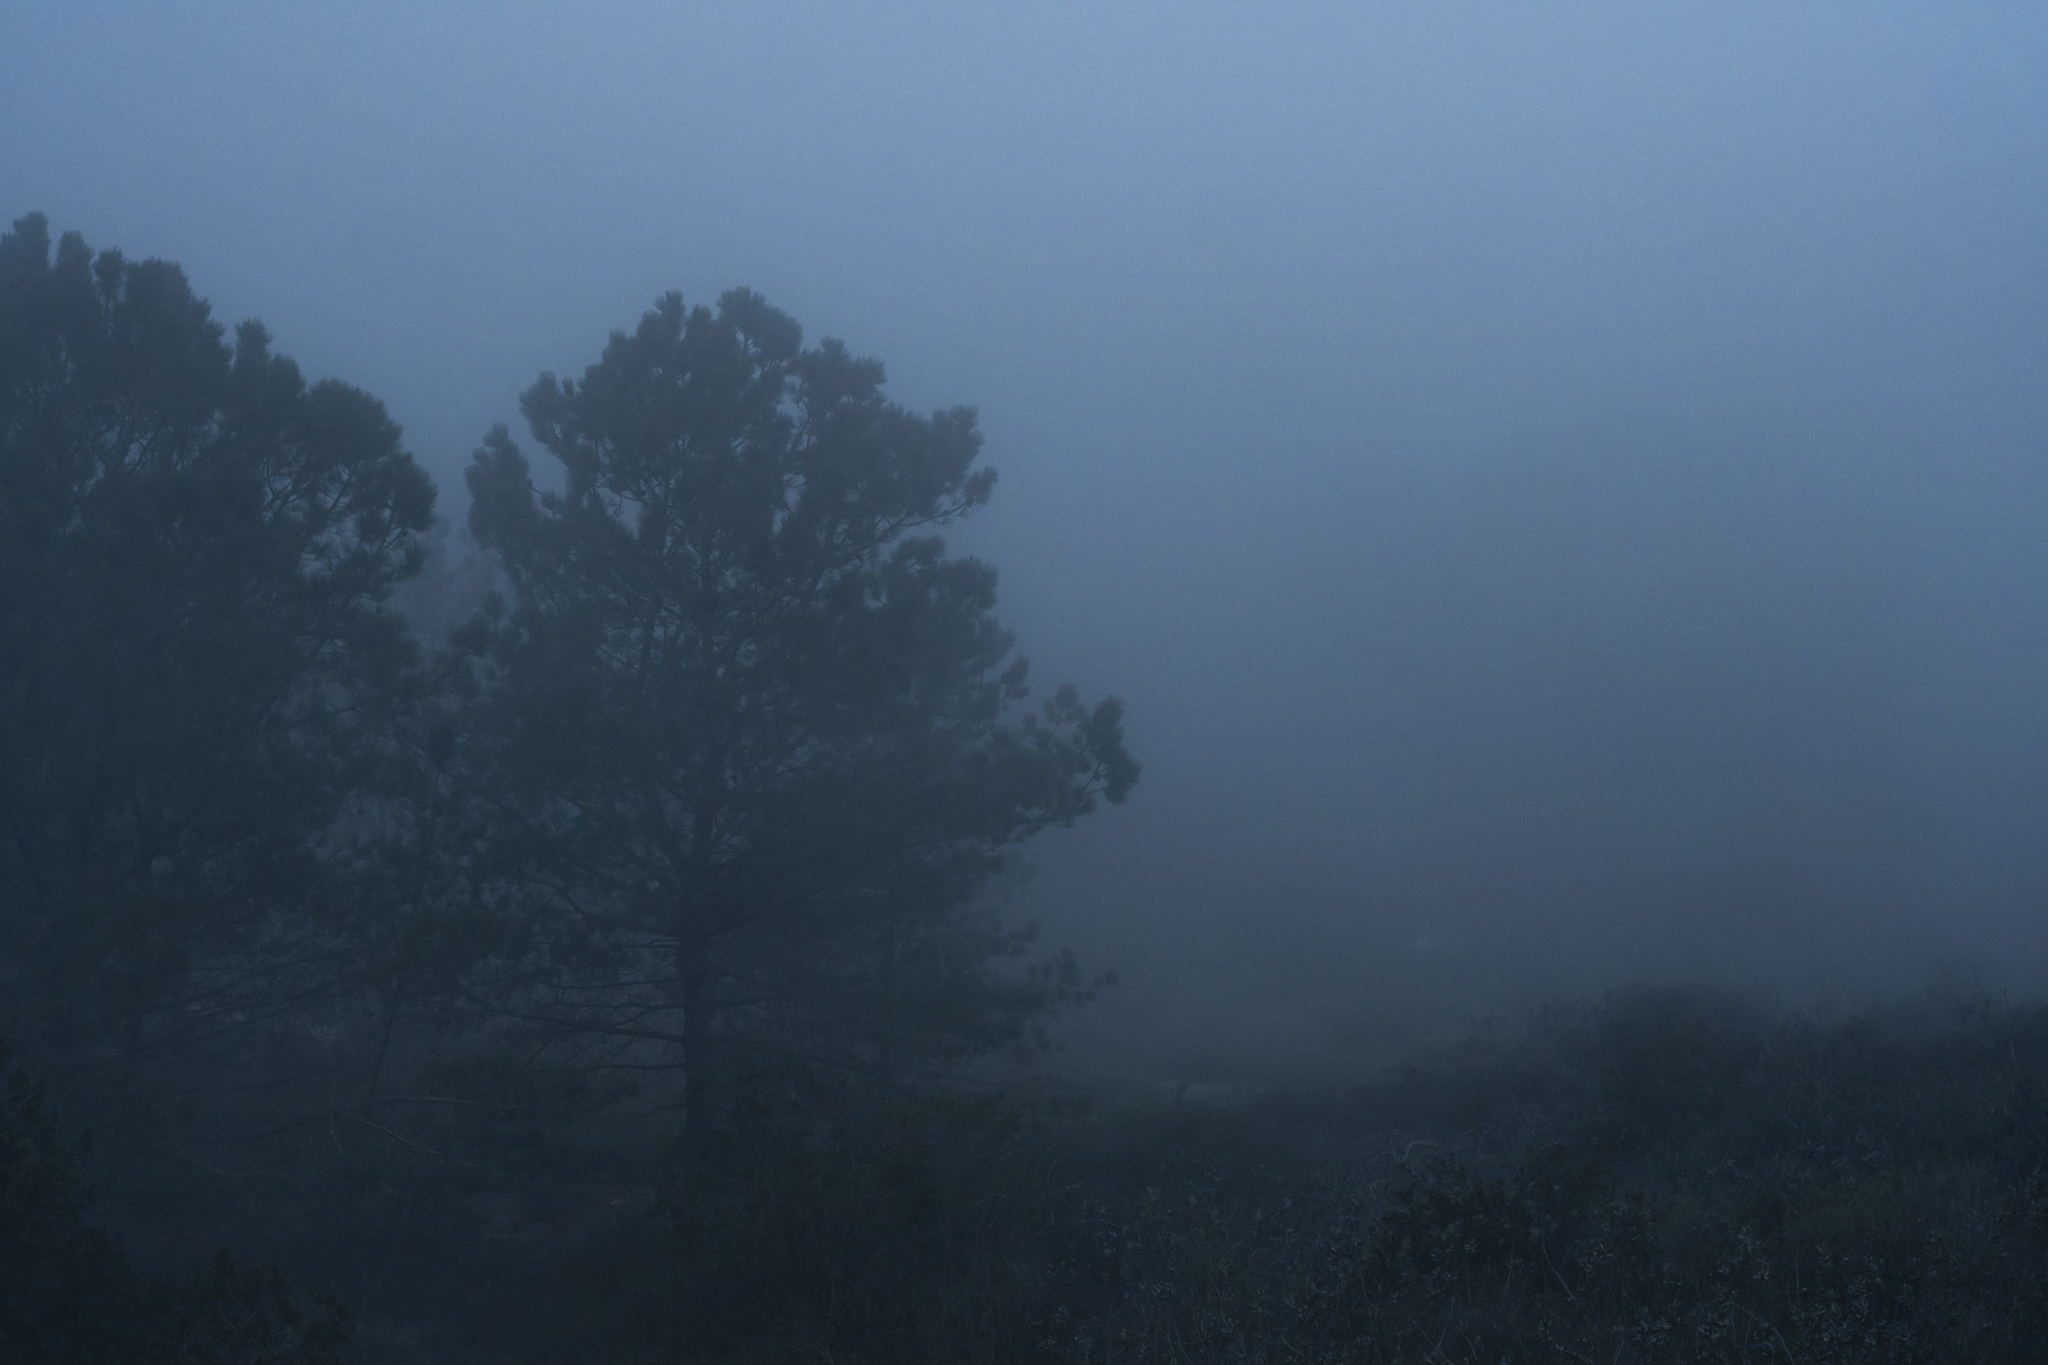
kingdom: Plantae
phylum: Tracheophyta
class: Pinopsida
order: Pinales
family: Pinaceae
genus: Pinus
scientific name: Pinus torreyana
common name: Torrey pine
